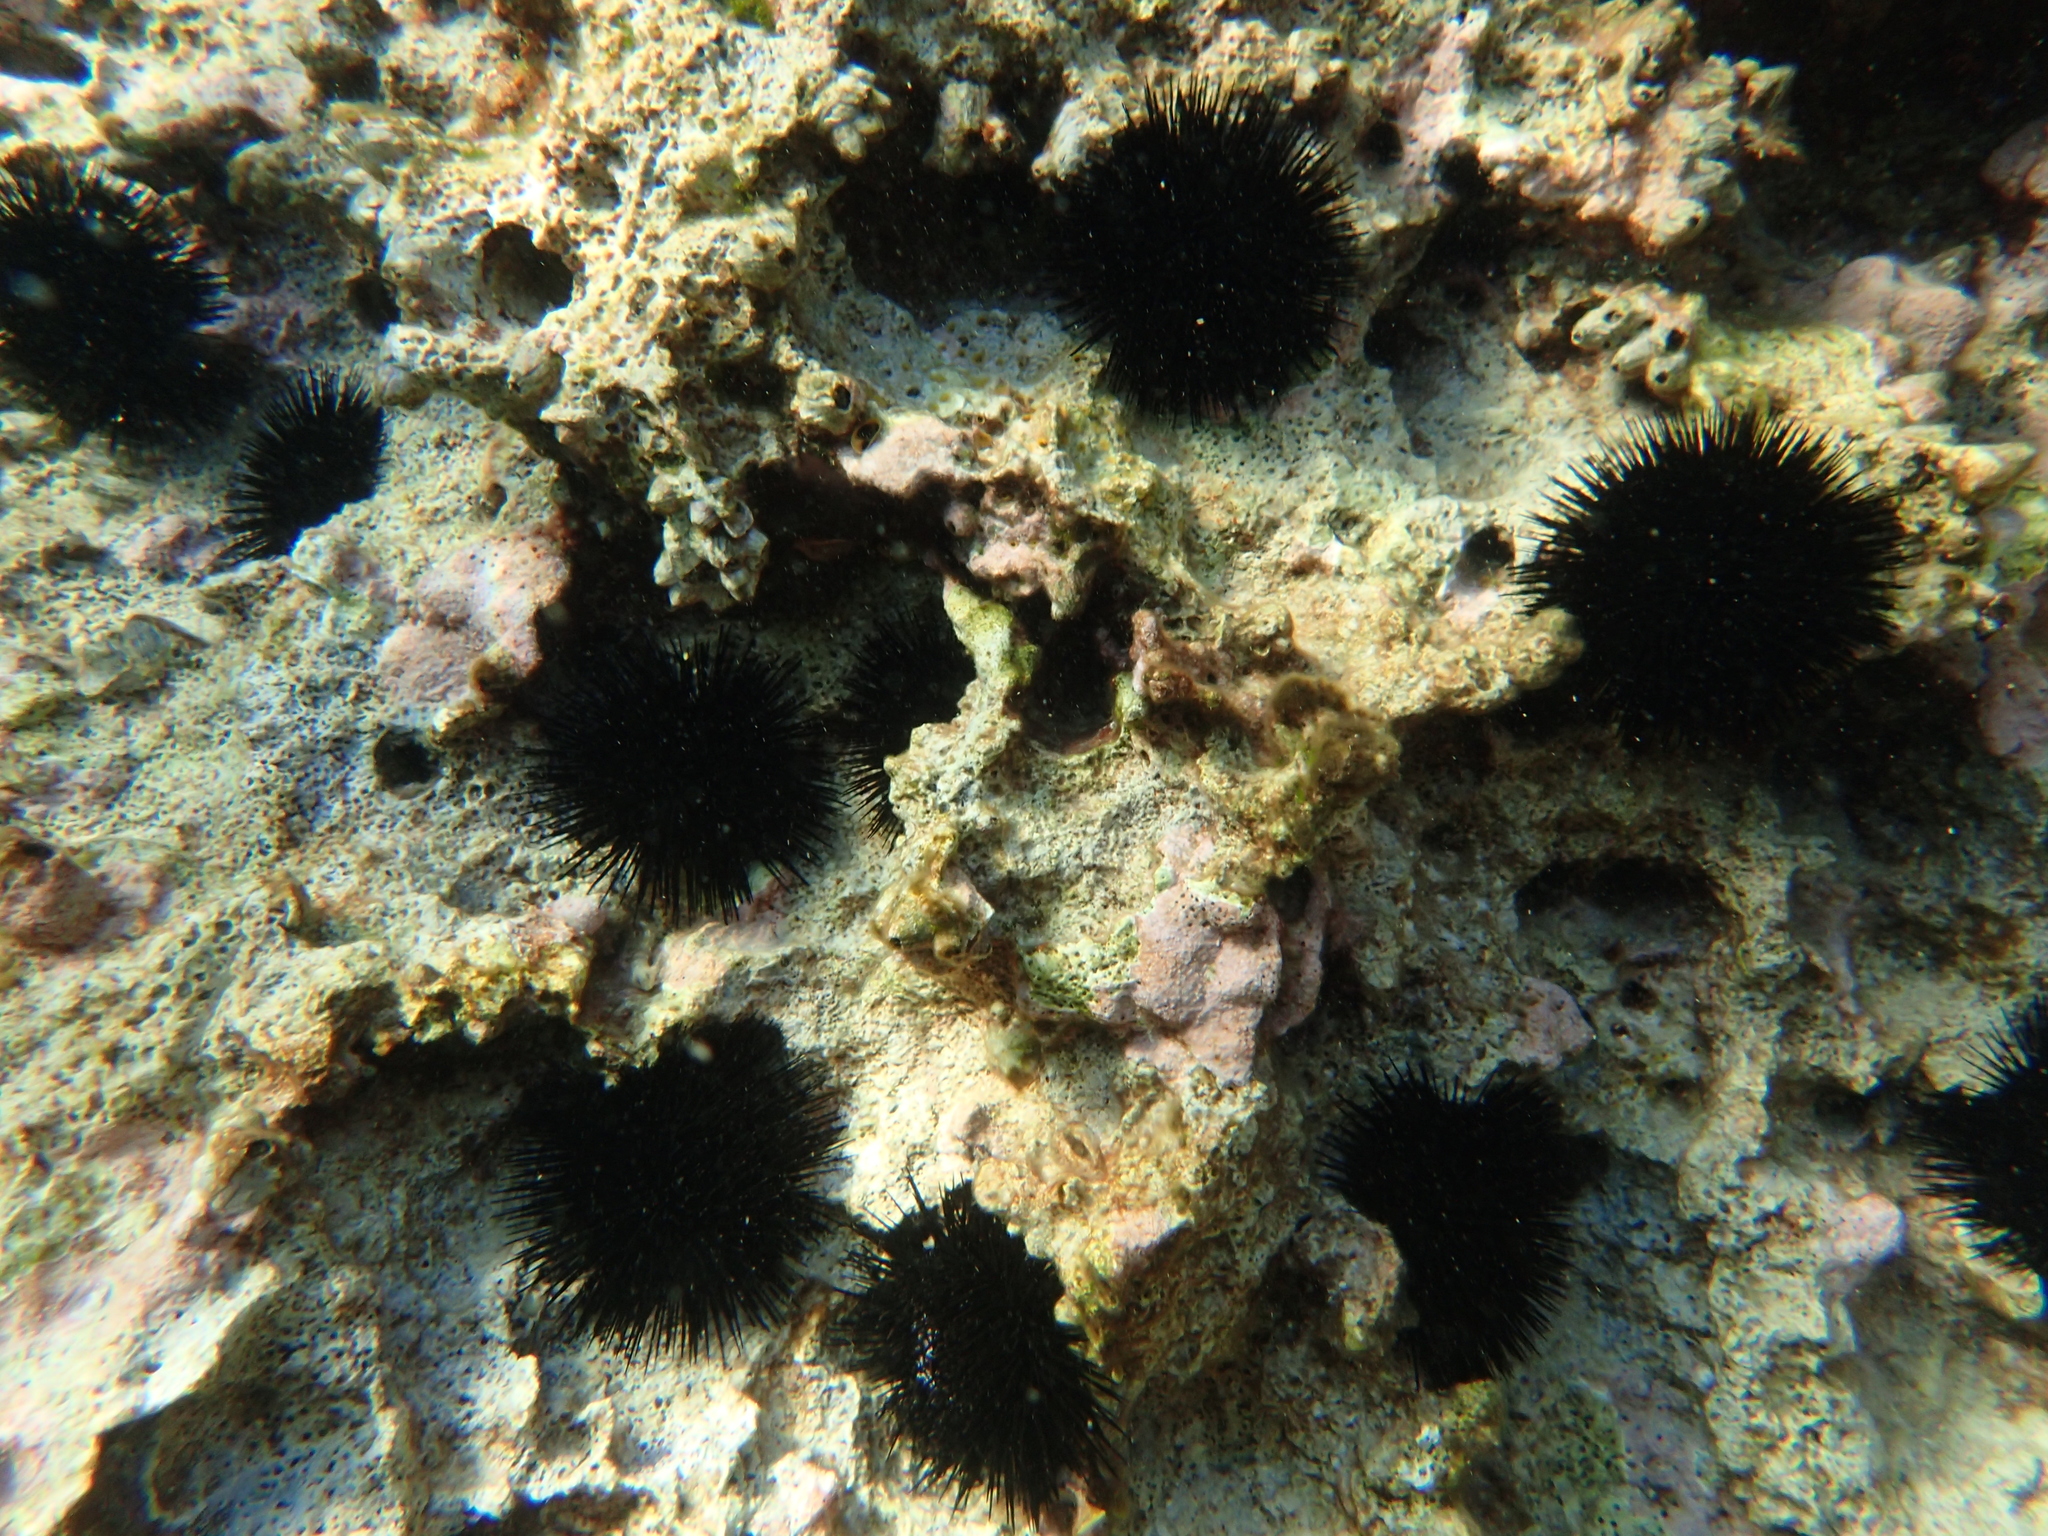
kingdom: Animalia
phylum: Echinodermata
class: Echinoidea
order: Arbacioida
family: Arbaciidae
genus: Arbacia
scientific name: Arbacia lixula
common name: Black sea urchin
